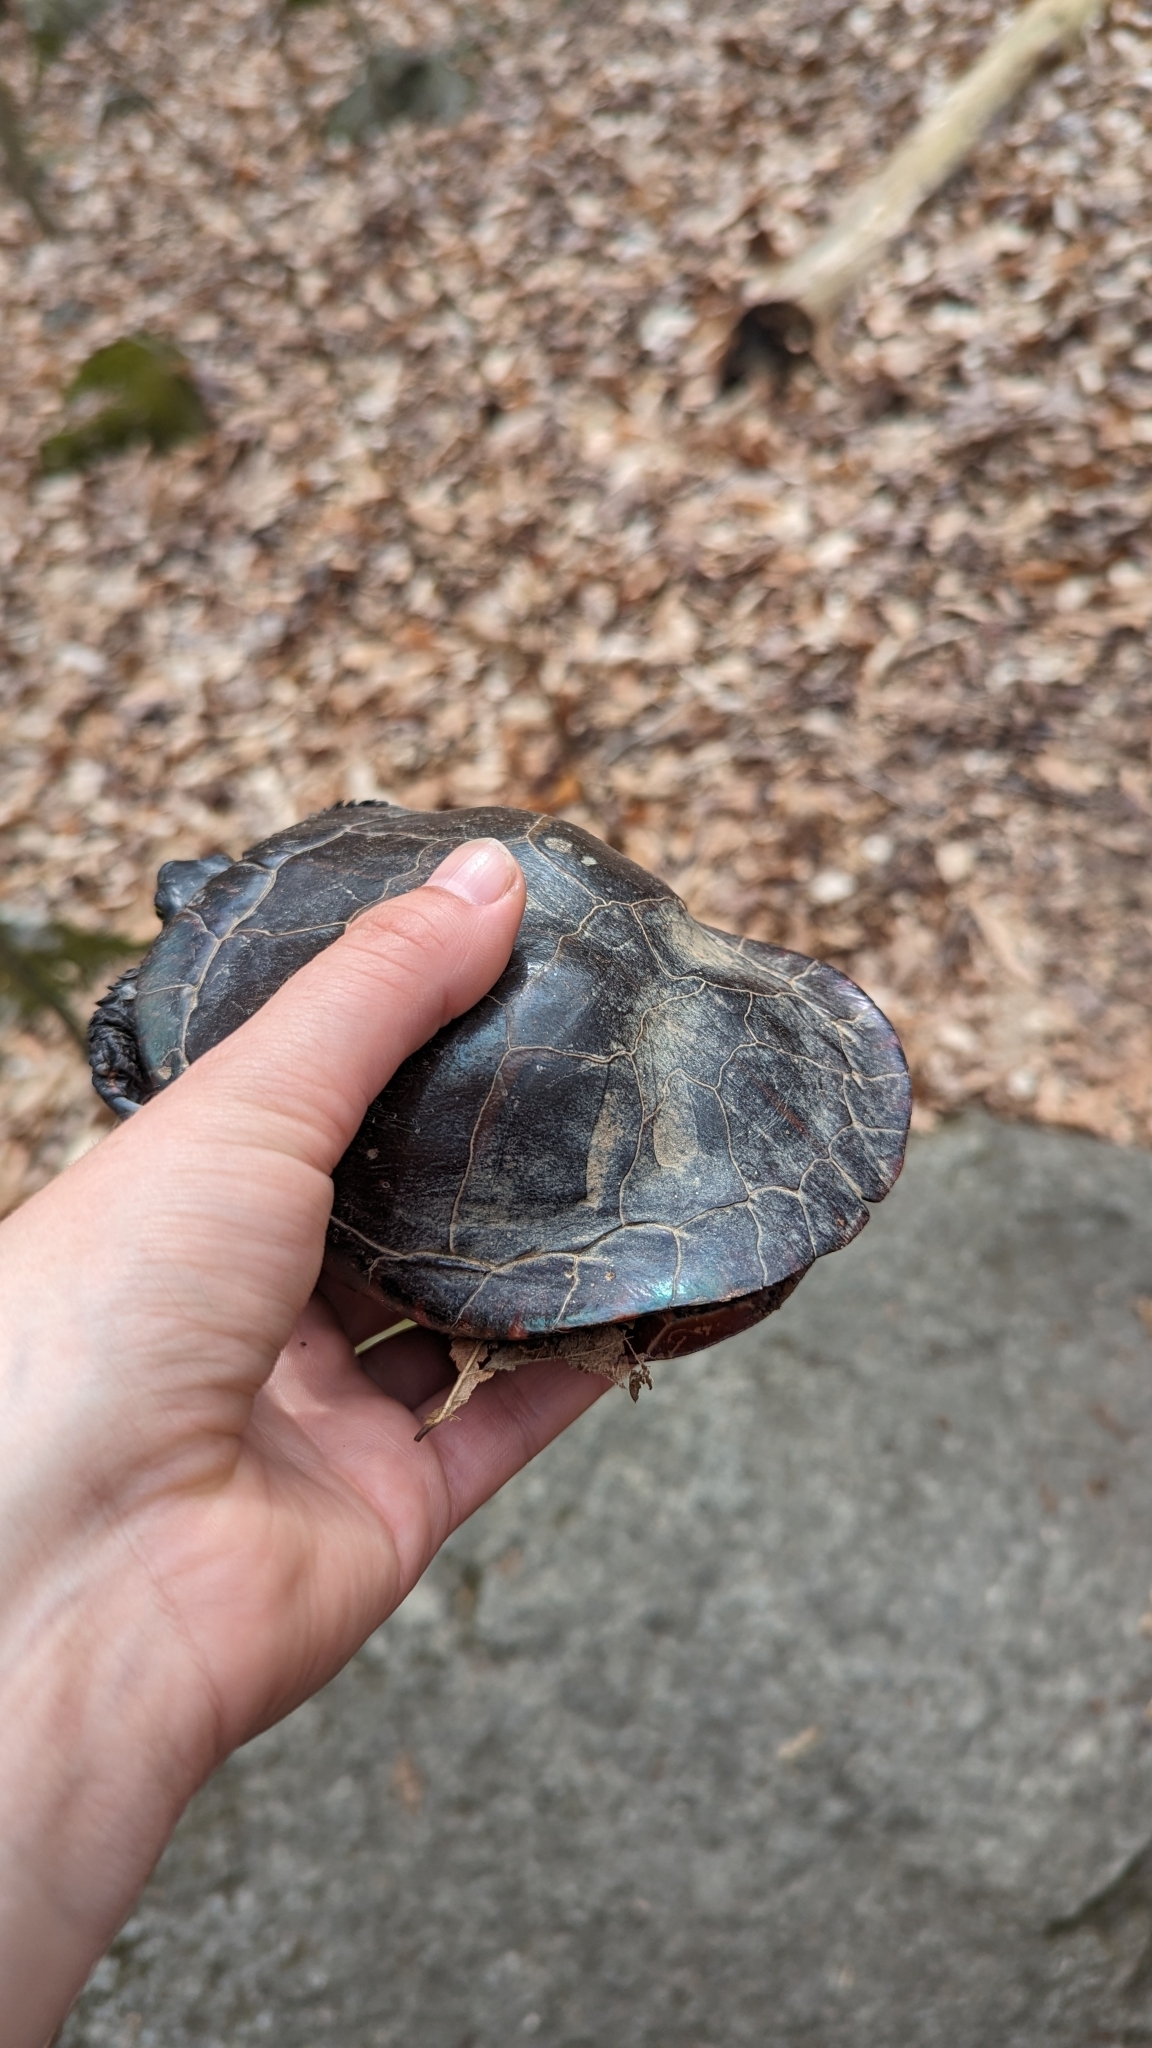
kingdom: Animalia
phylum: Chordata
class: Testudines
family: Emydidae
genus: Chrysemys
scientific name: Chrysemys picta
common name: Painted turtle
